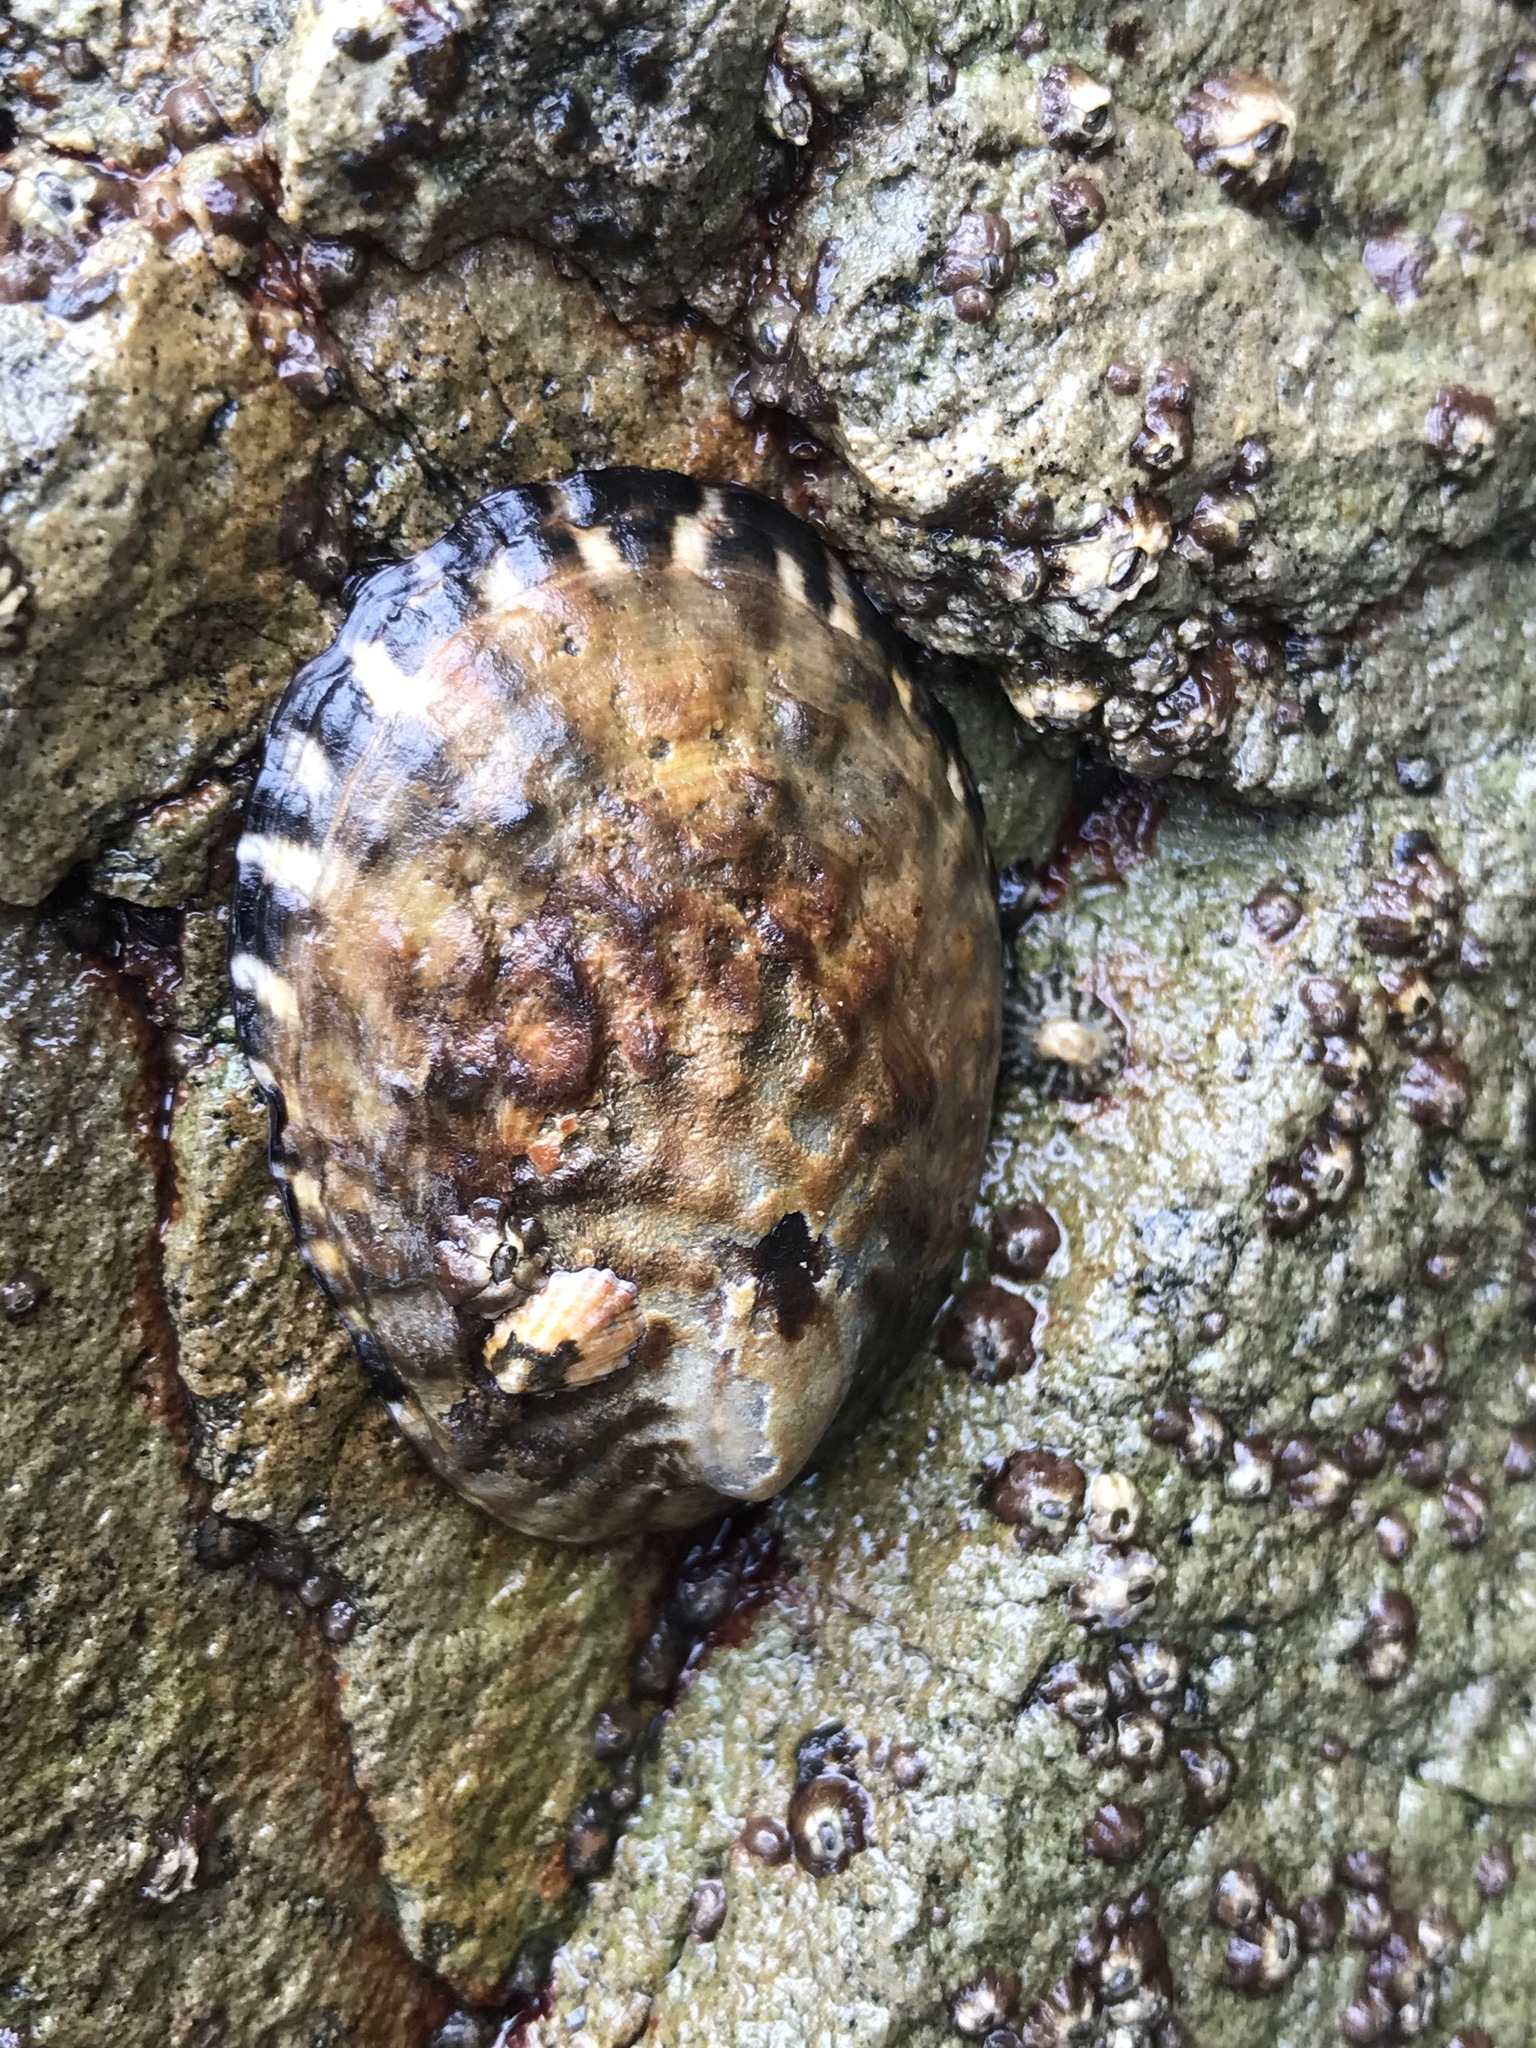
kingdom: Animalia
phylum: Mollusca
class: Gastropoda
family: Lottiidae
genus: Lottia
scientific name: Lottia gigantea
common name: Owl limpet
